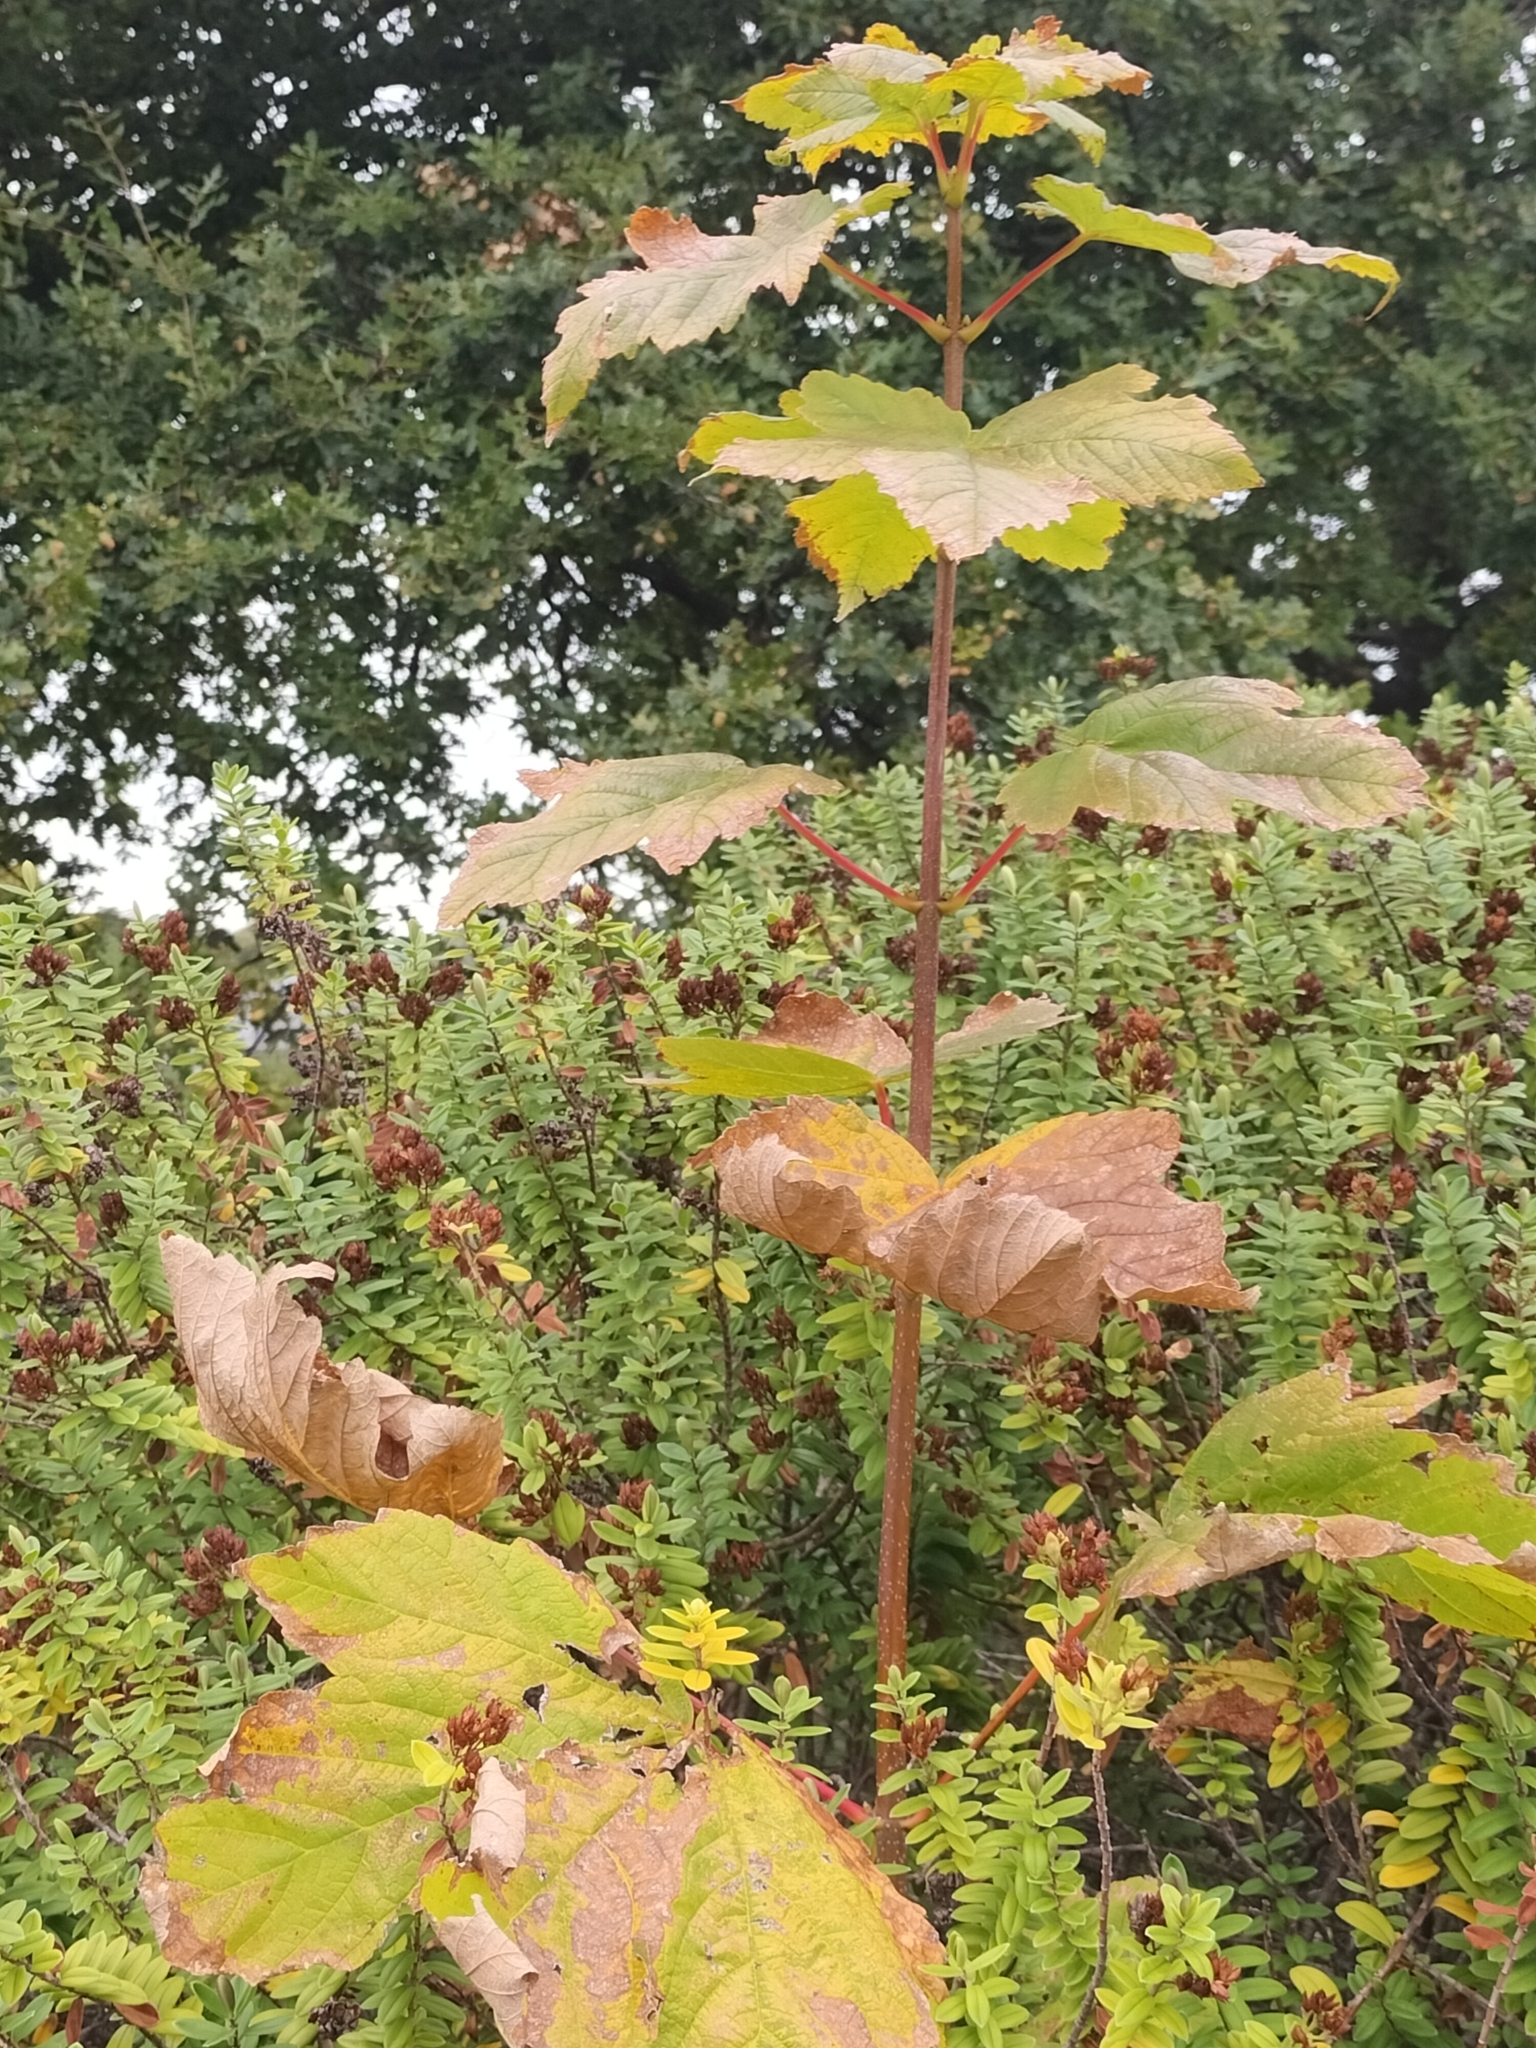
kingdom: Plantae
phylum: Tracheophyta
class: Magnoliopsida
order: Sapindales
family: Sapindaceae
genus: Acer
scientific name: Acer pseudoplatanus
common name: Sycamore
